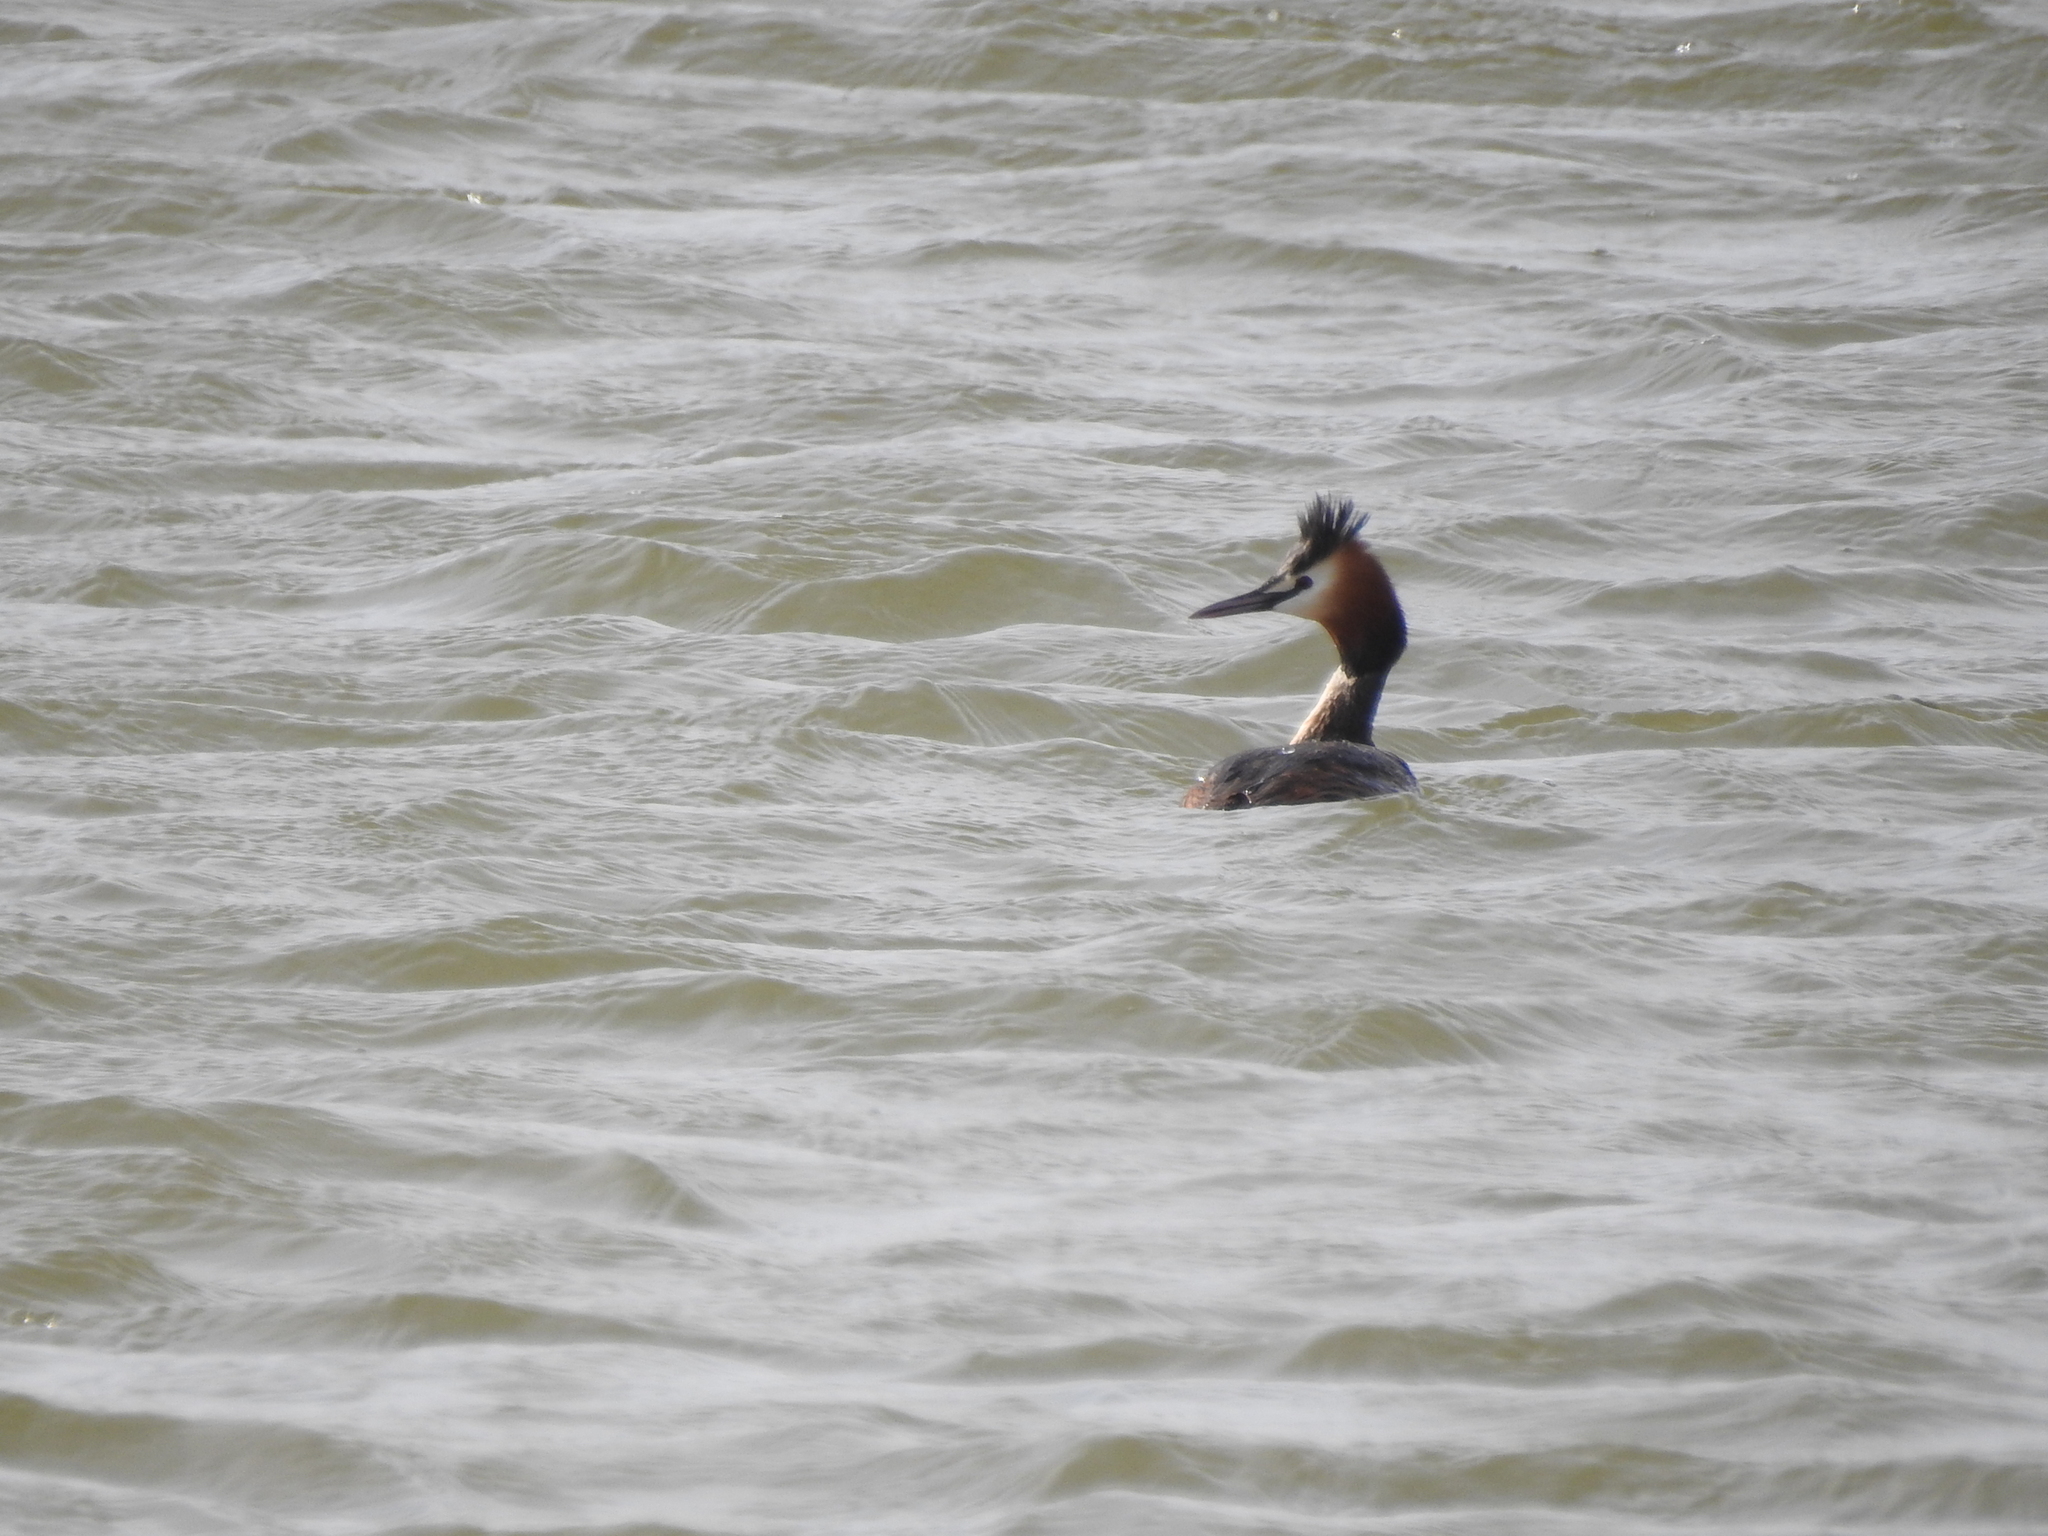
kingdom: Animalia
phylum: Chordata
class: Aves
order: Podicipediformes
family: Podicipedidae
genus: Podiceps
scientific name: Podiceps cristatus
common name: Great crested grebe
